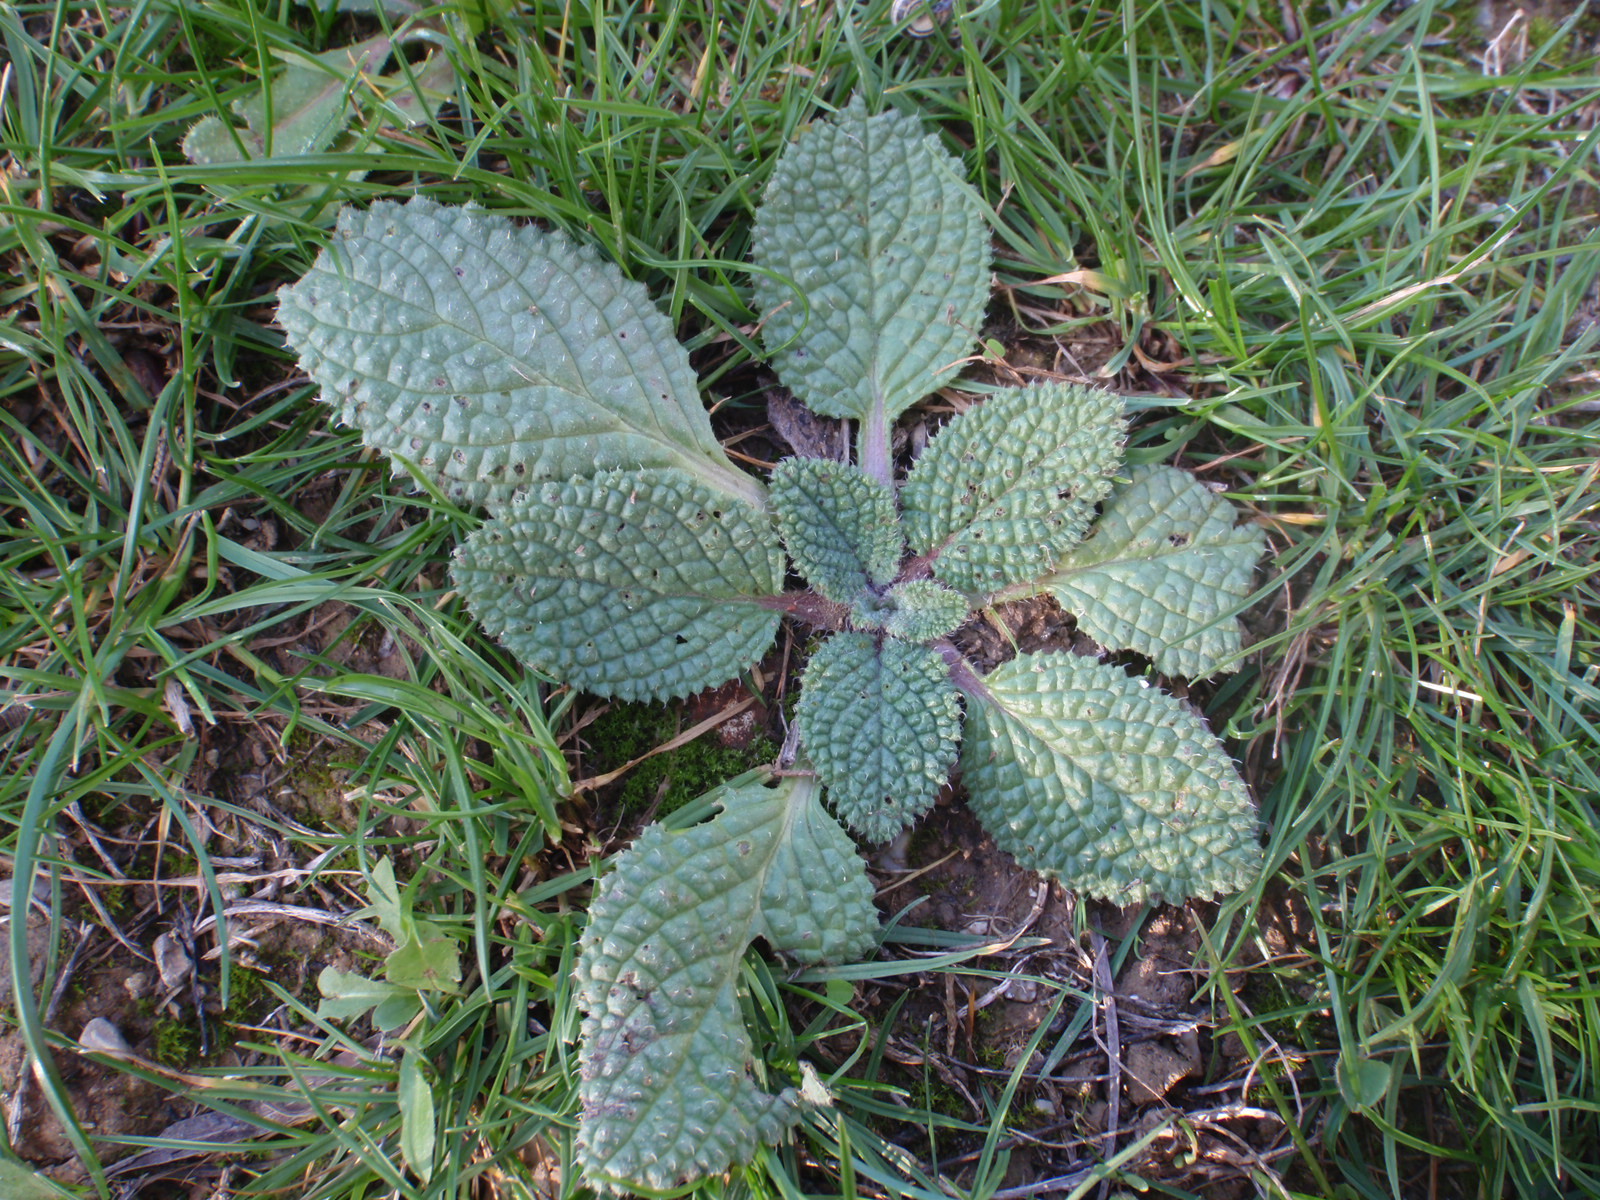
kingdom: Plantae
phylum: Tracheophyta
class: Magnoliopsida
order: Boraginales
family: Boraginaceae
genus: Borago
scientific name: Borago officinalis
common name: Borage
